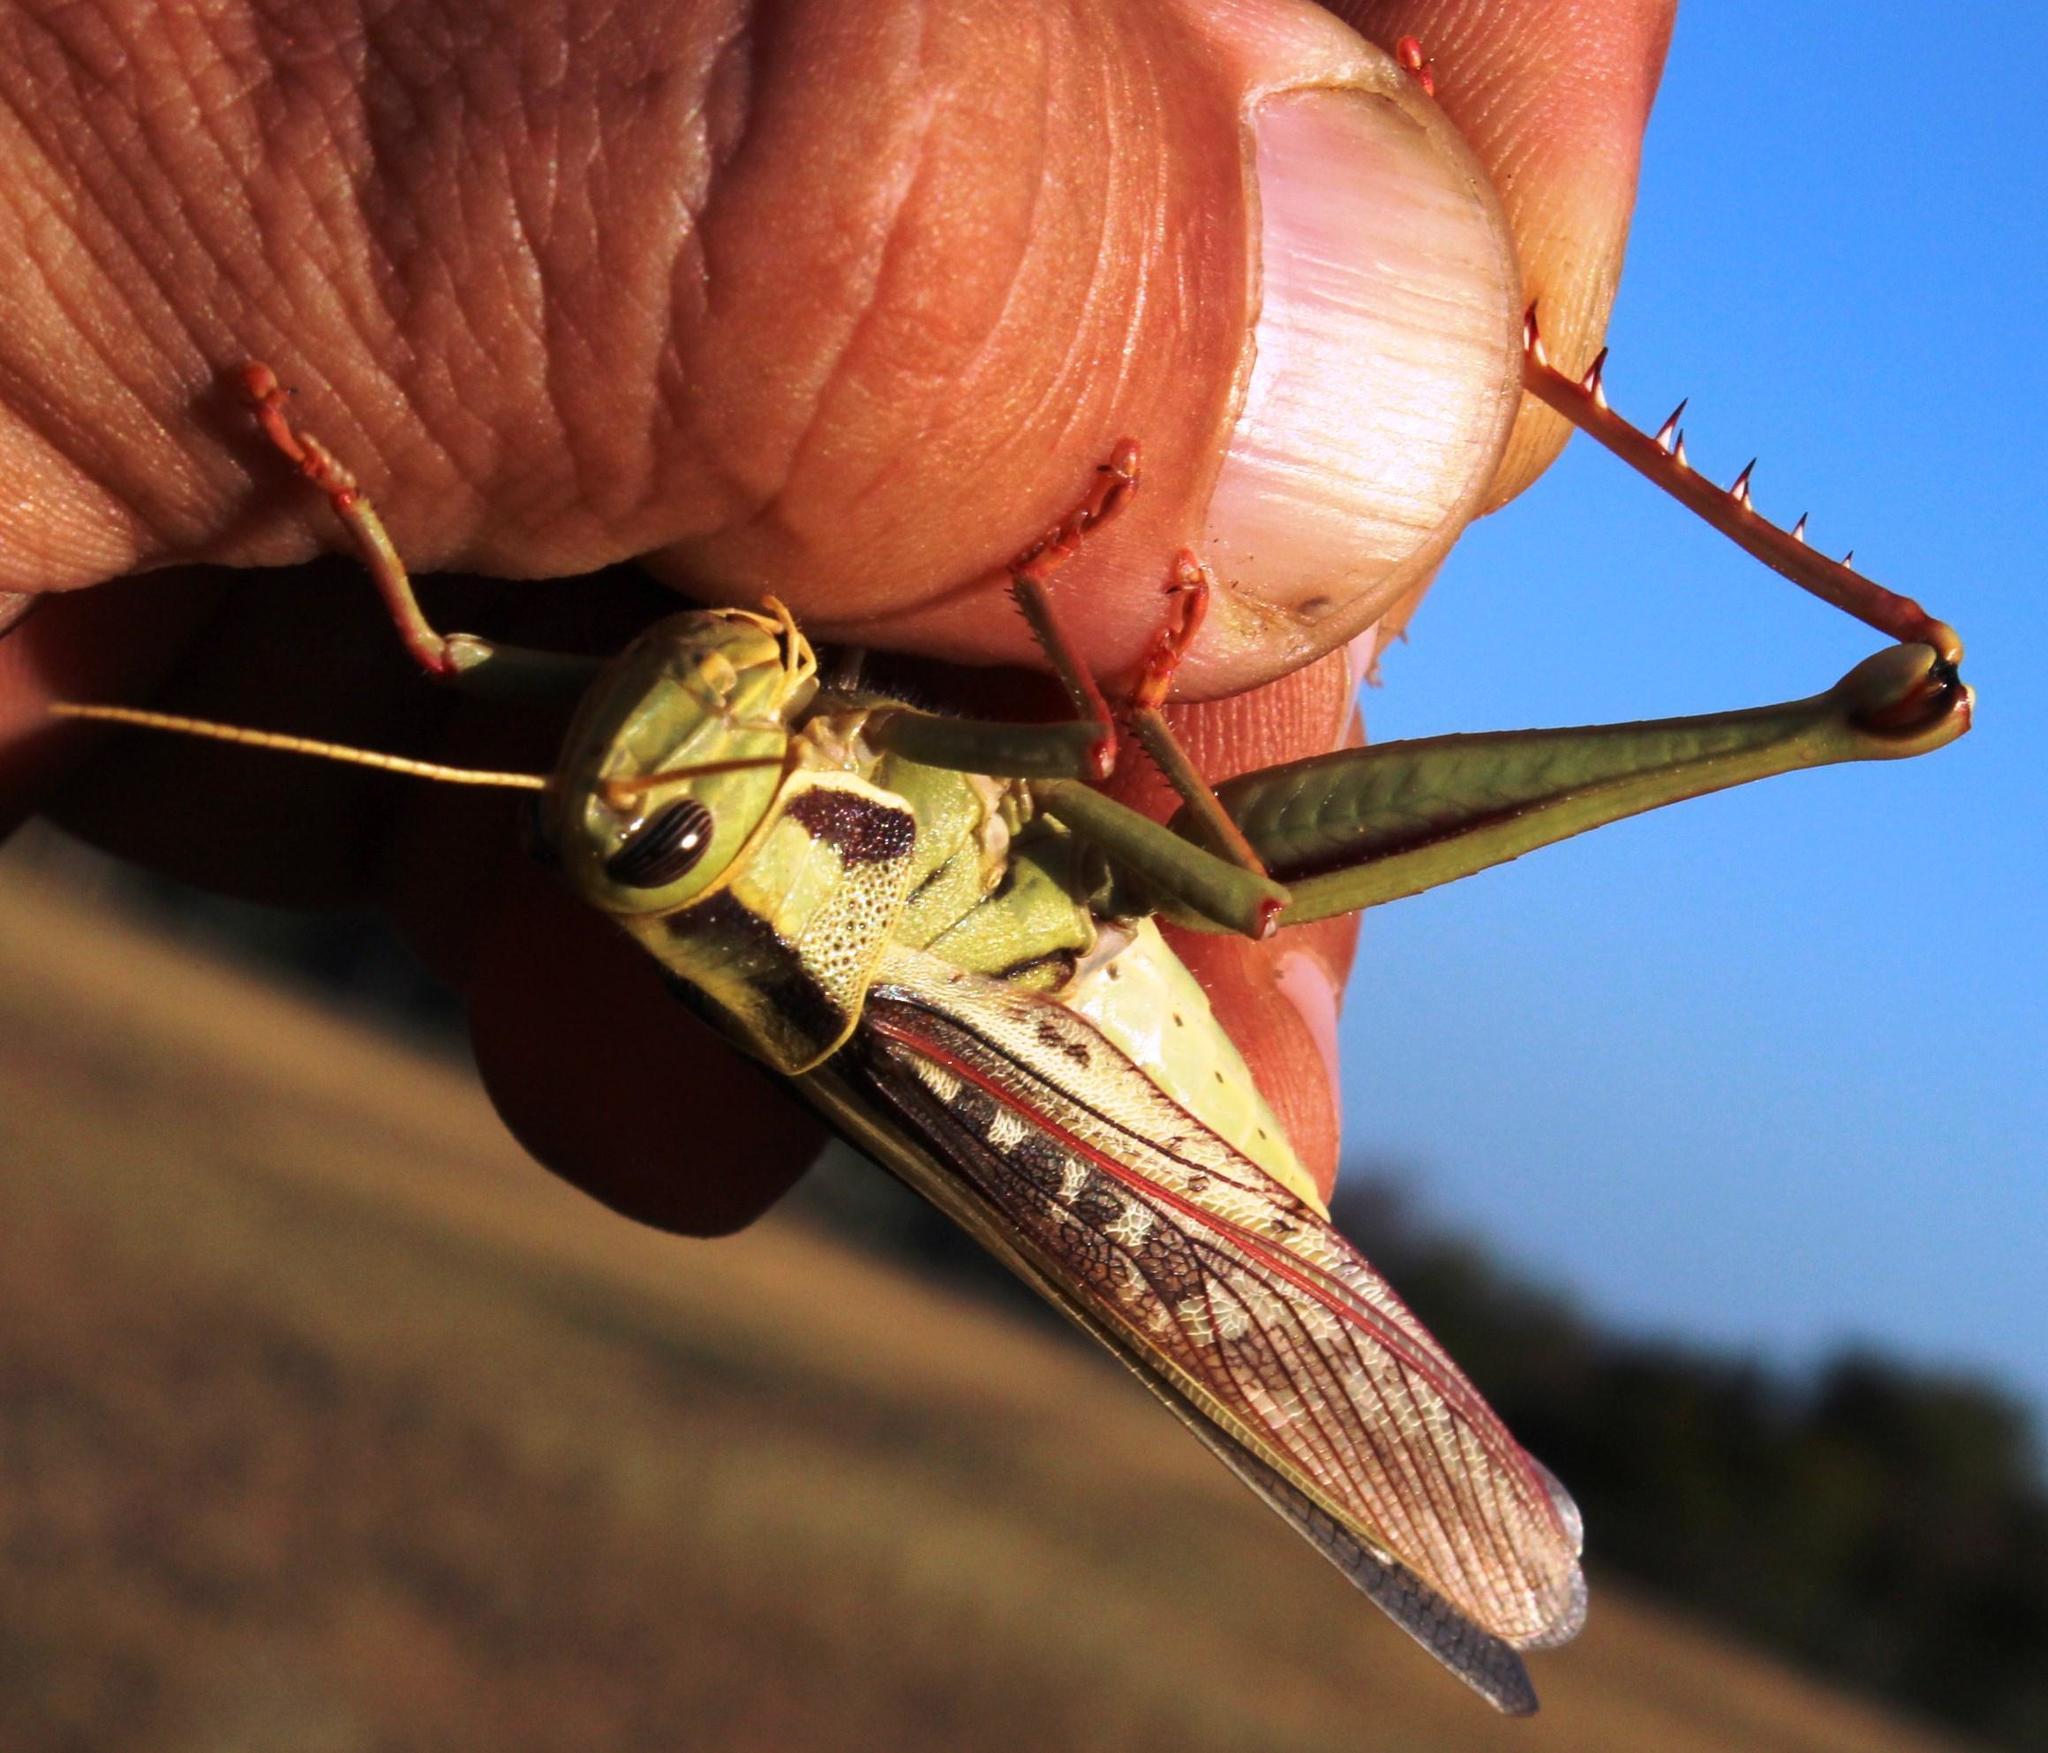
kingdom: Animalia
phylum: Arthropoda
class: Insecta
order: Orthoptera
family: Acrididae
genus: Cyrtacanthacris
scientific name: Cyrtacanthacris aeruginosa
